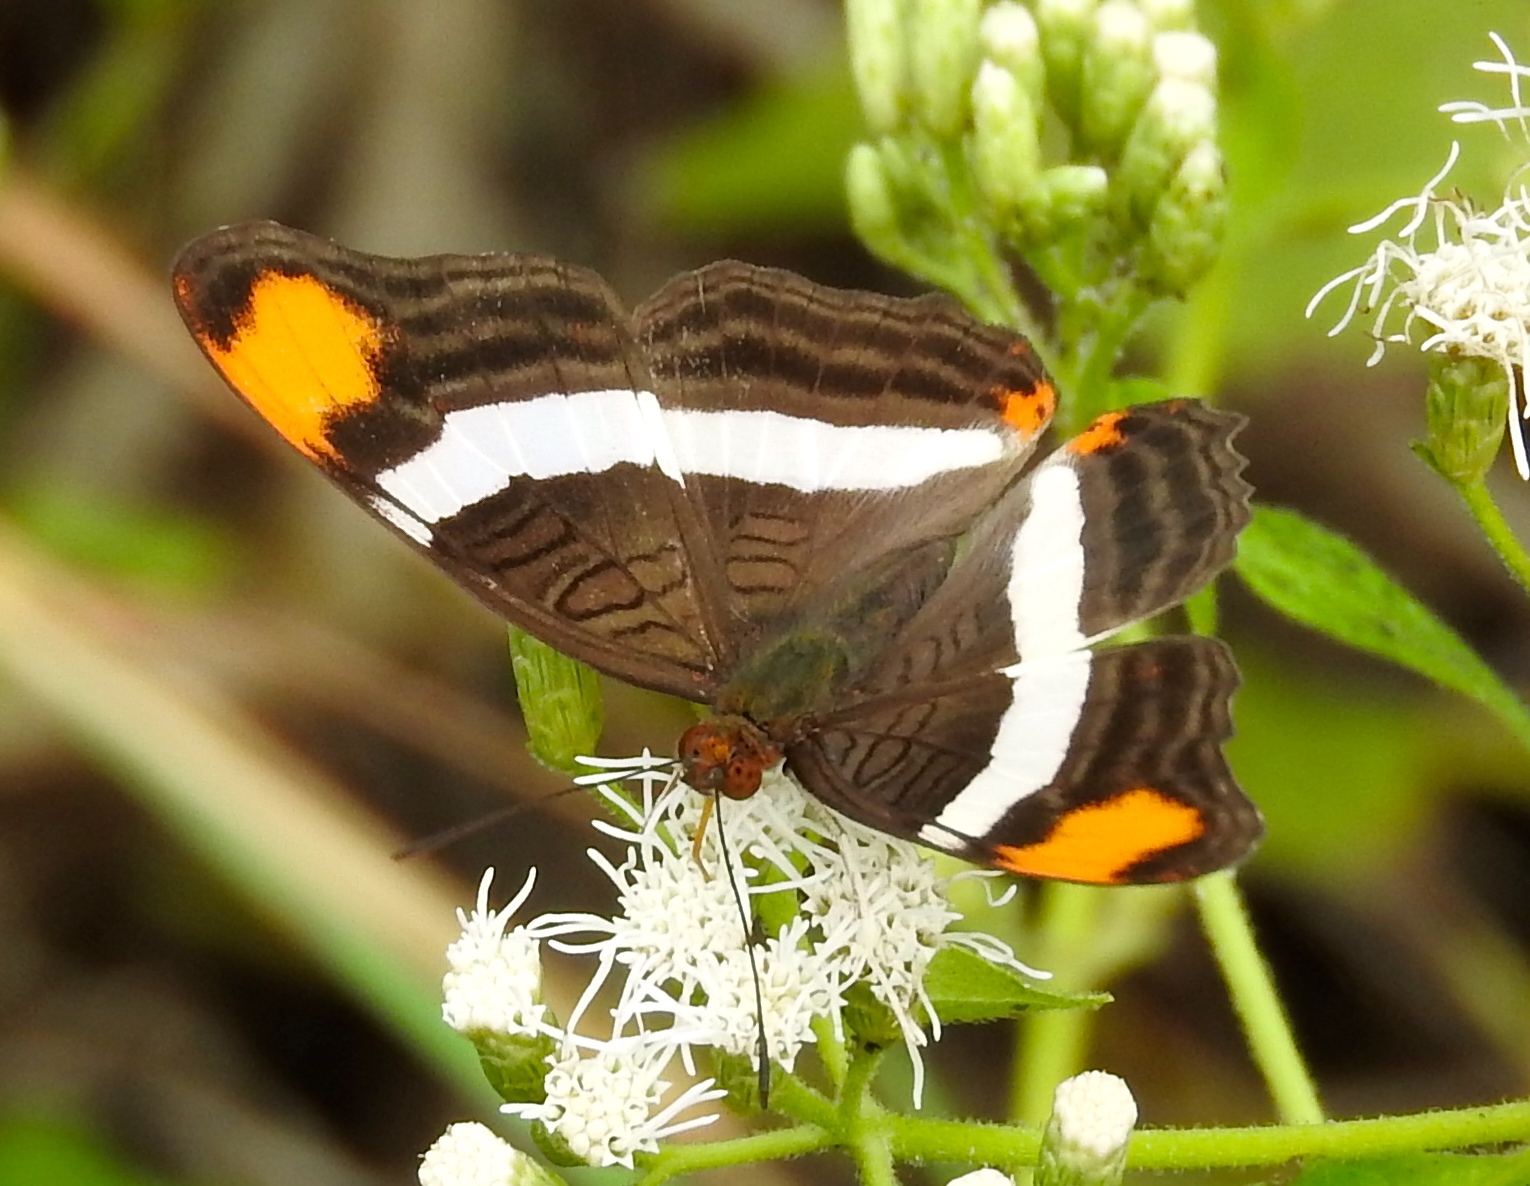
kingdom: Animalia
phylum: Arthropoda
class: Insecta
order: Lepidoptera
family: Nymphalidae
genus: Limenitis
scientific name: Limenitis fessonia
